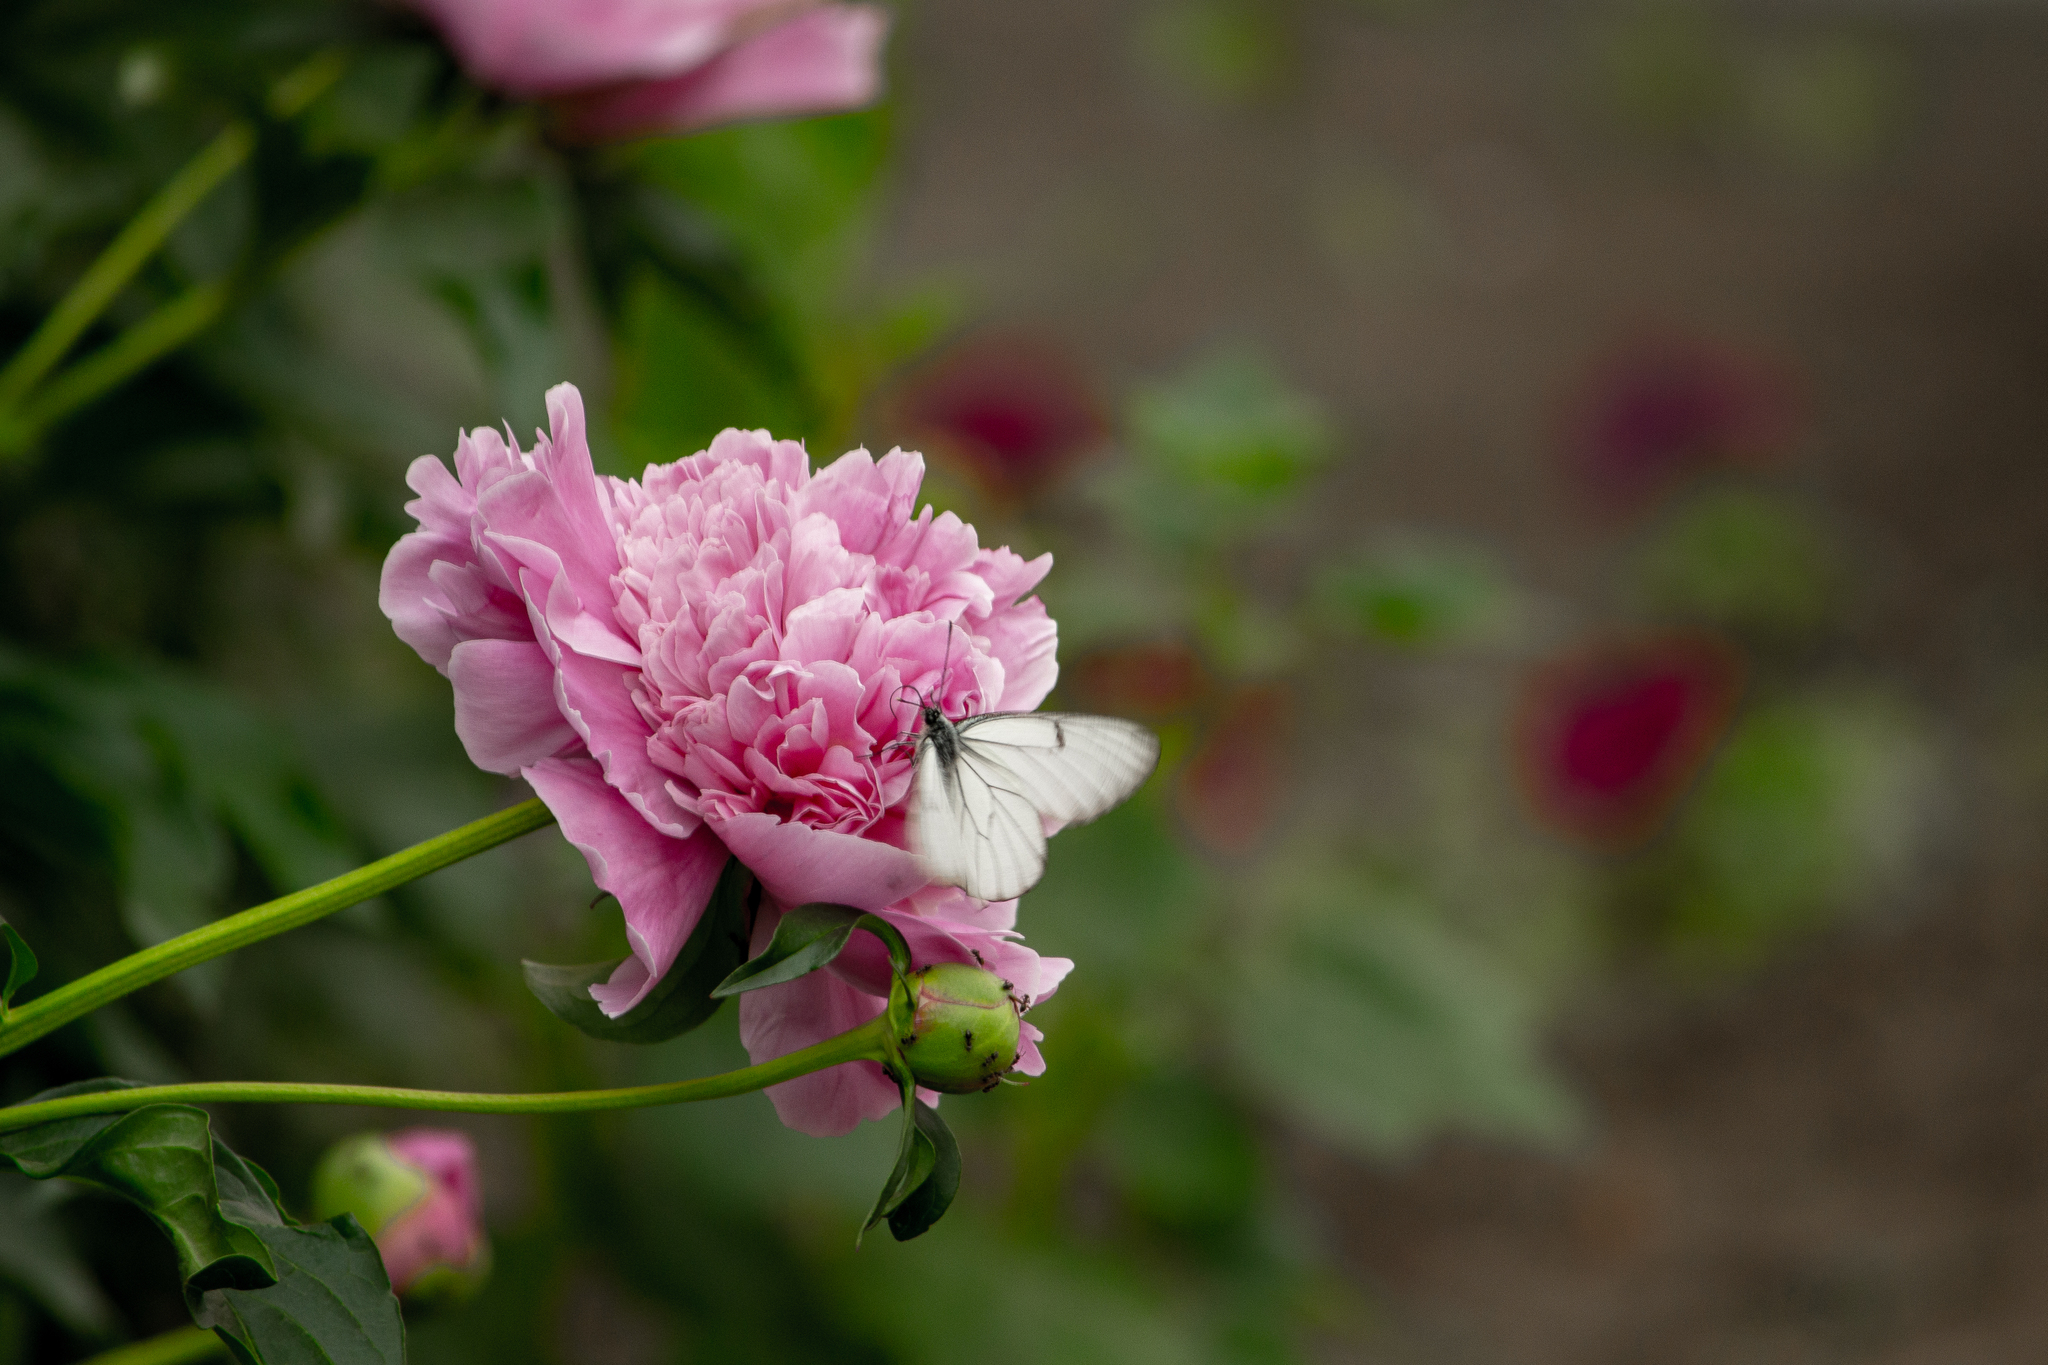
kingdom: Animalia
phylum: Arthropoda
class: Insecta
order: Lepidoptera
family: Pieridae
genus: Aporia
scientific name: Aporia crataegi
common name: Black-veined white
